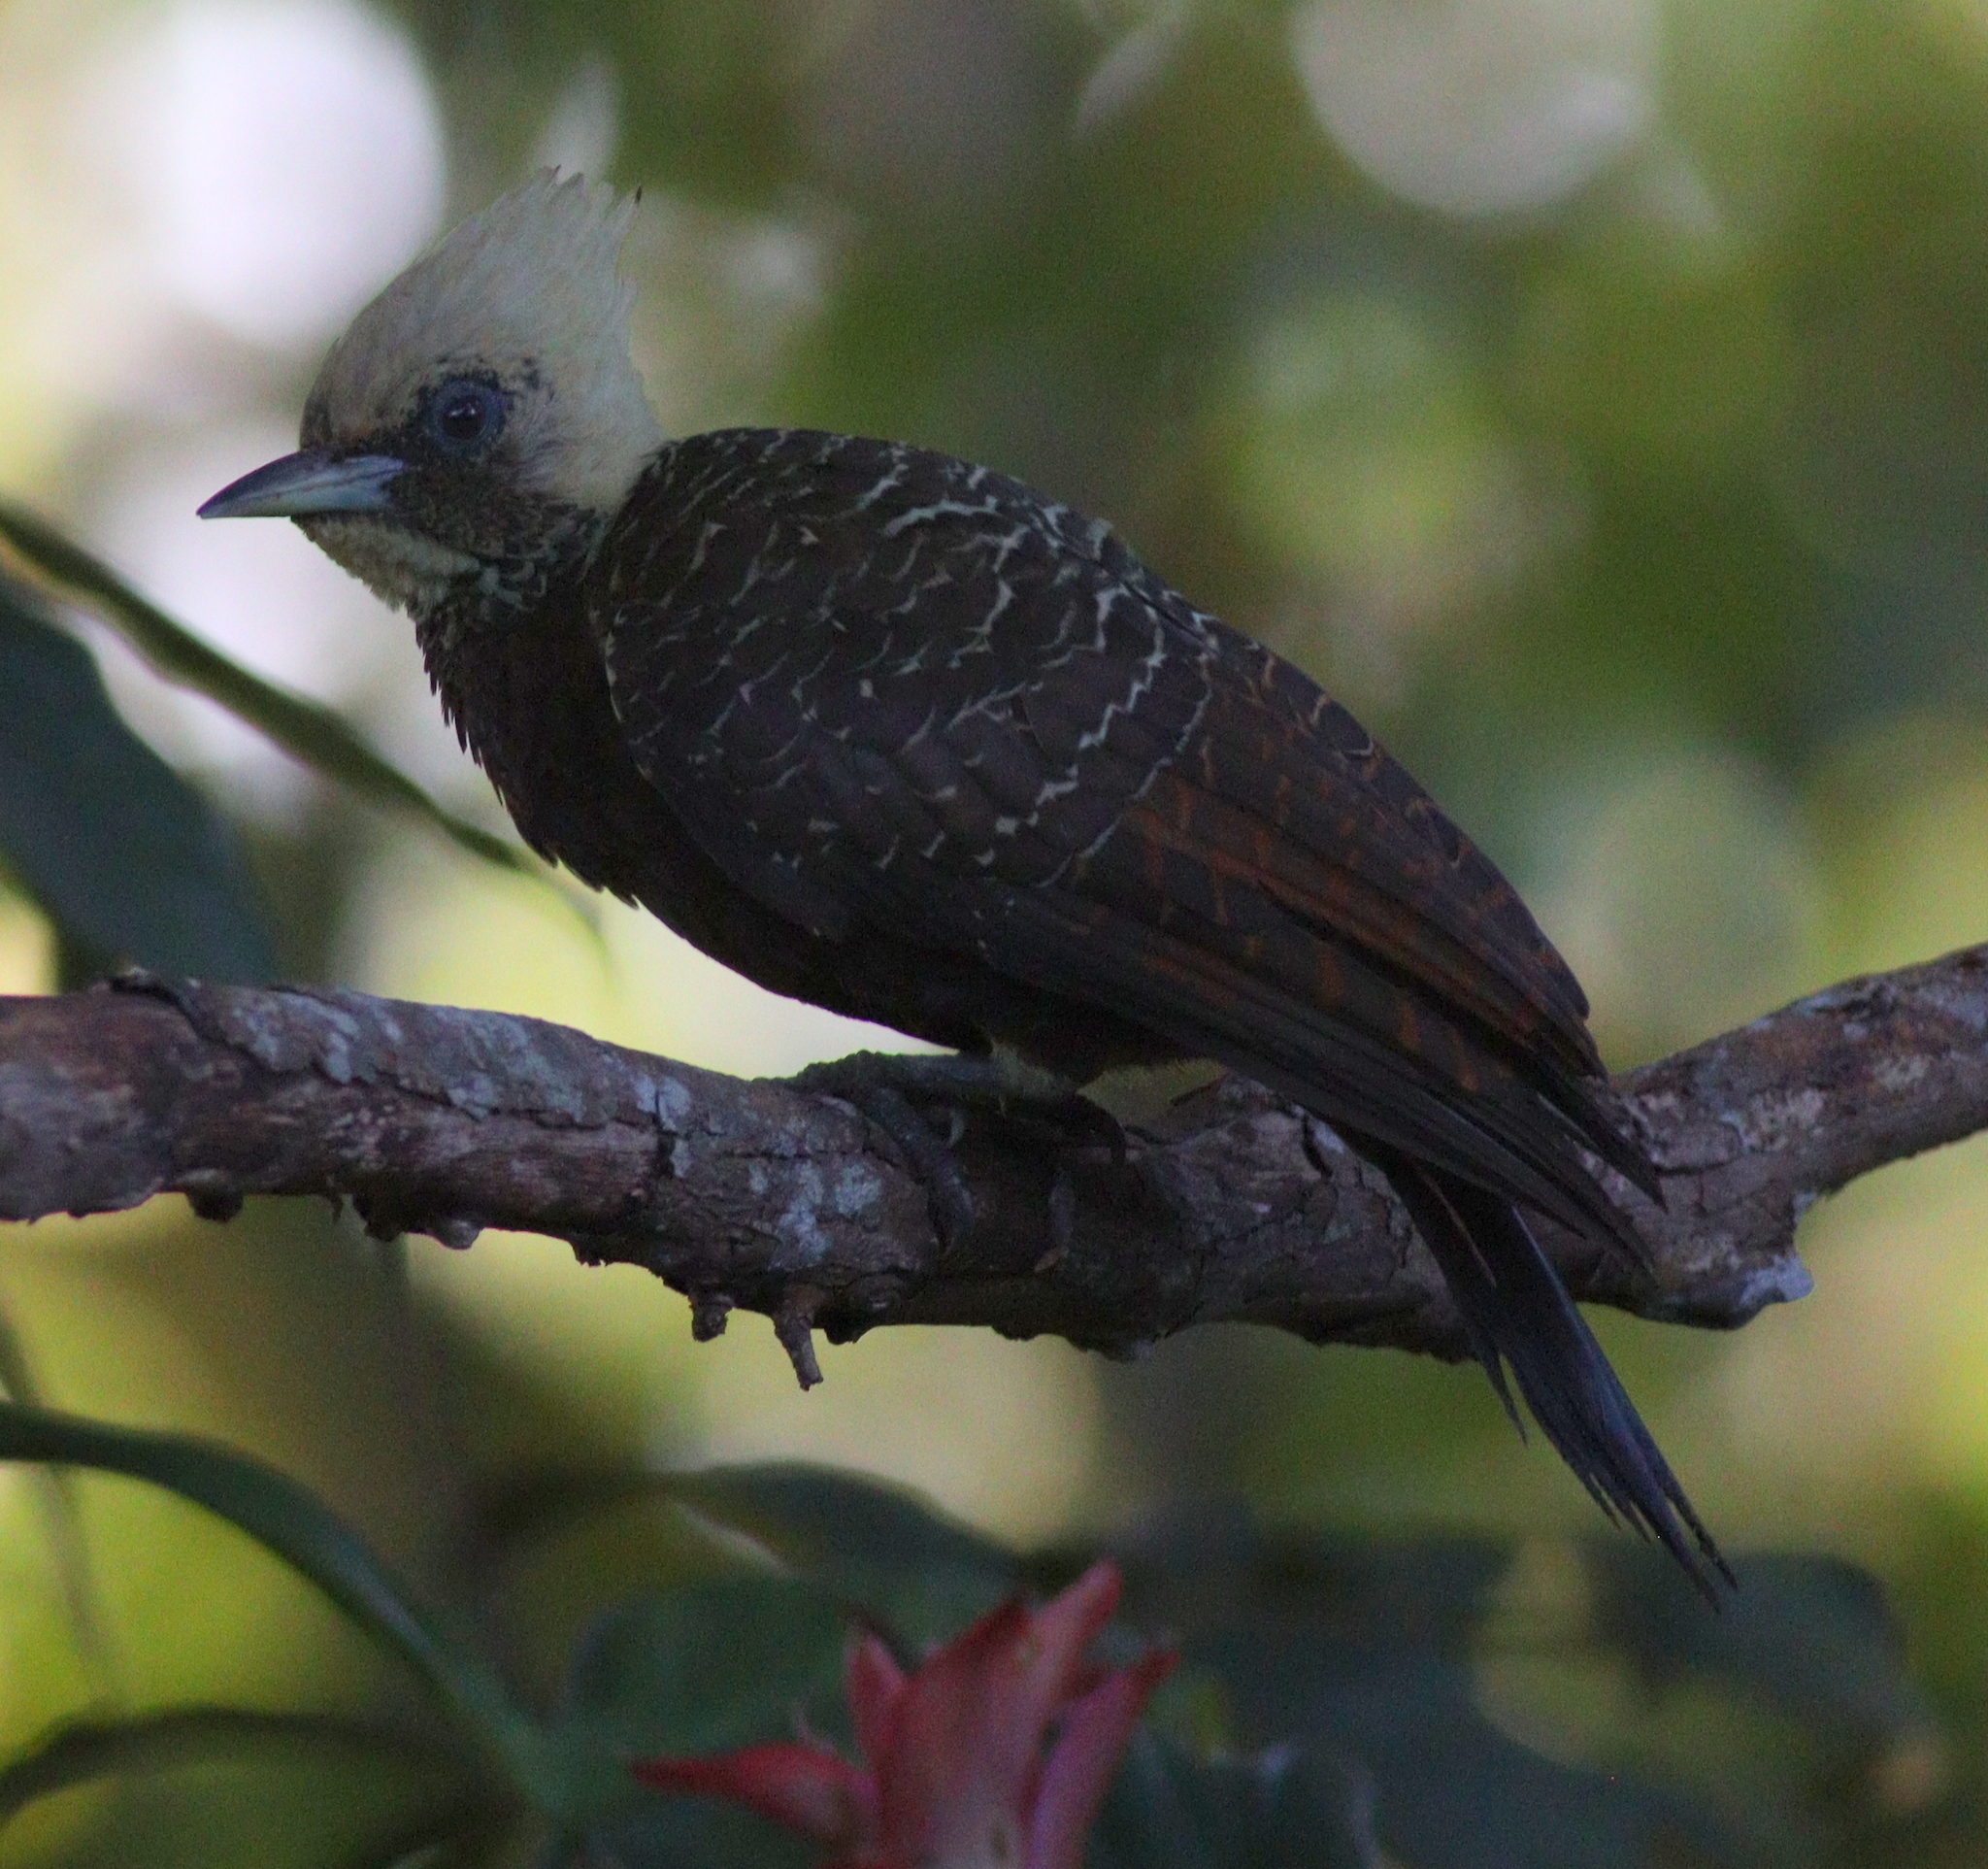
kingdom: Animalia
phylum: Chordata
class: Aves
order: Piciformes
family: Picidae
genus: Celeus
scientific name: Celeus lugubris
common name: Pale-crested woodpecker
